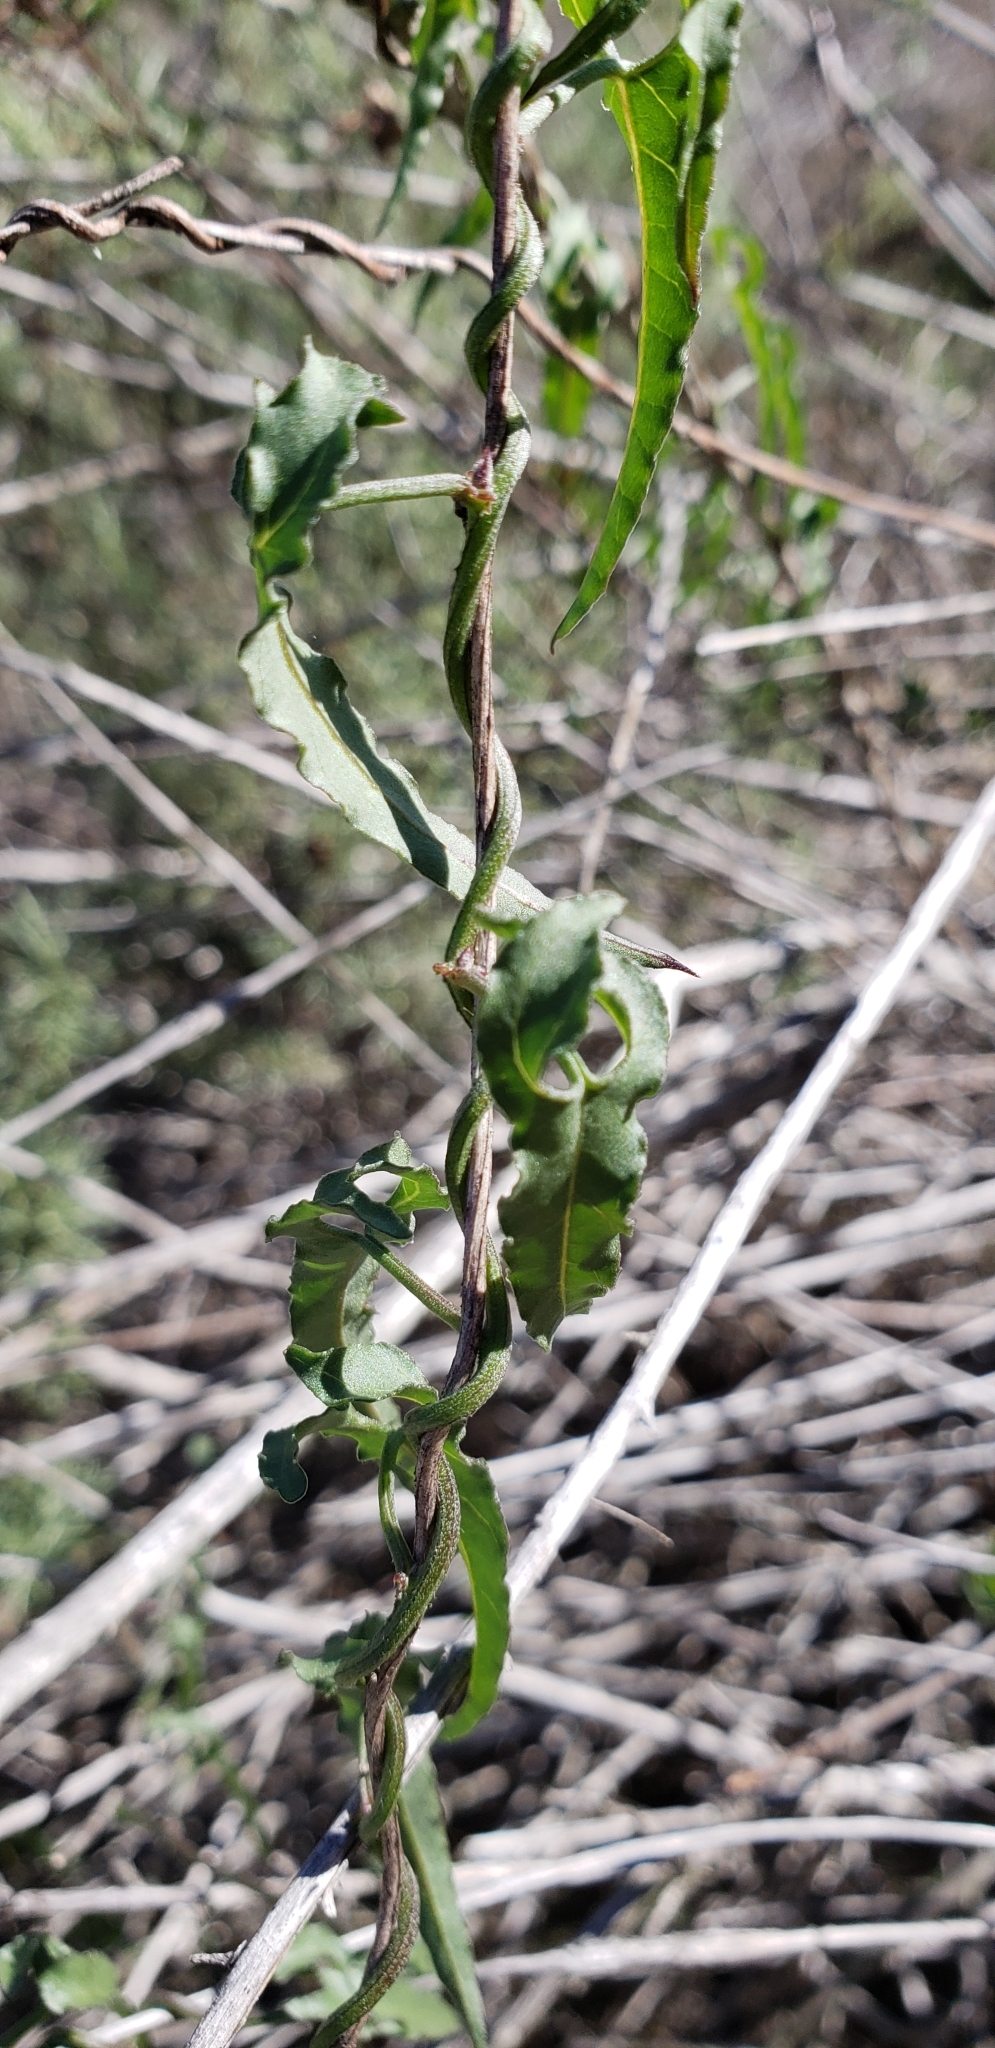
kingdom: Plantae
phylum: Tracheophyta
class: Magnoliopsida
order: Solanales
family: Convolvulaceae
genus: Calystegia
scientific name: Calystegia macrostegia
